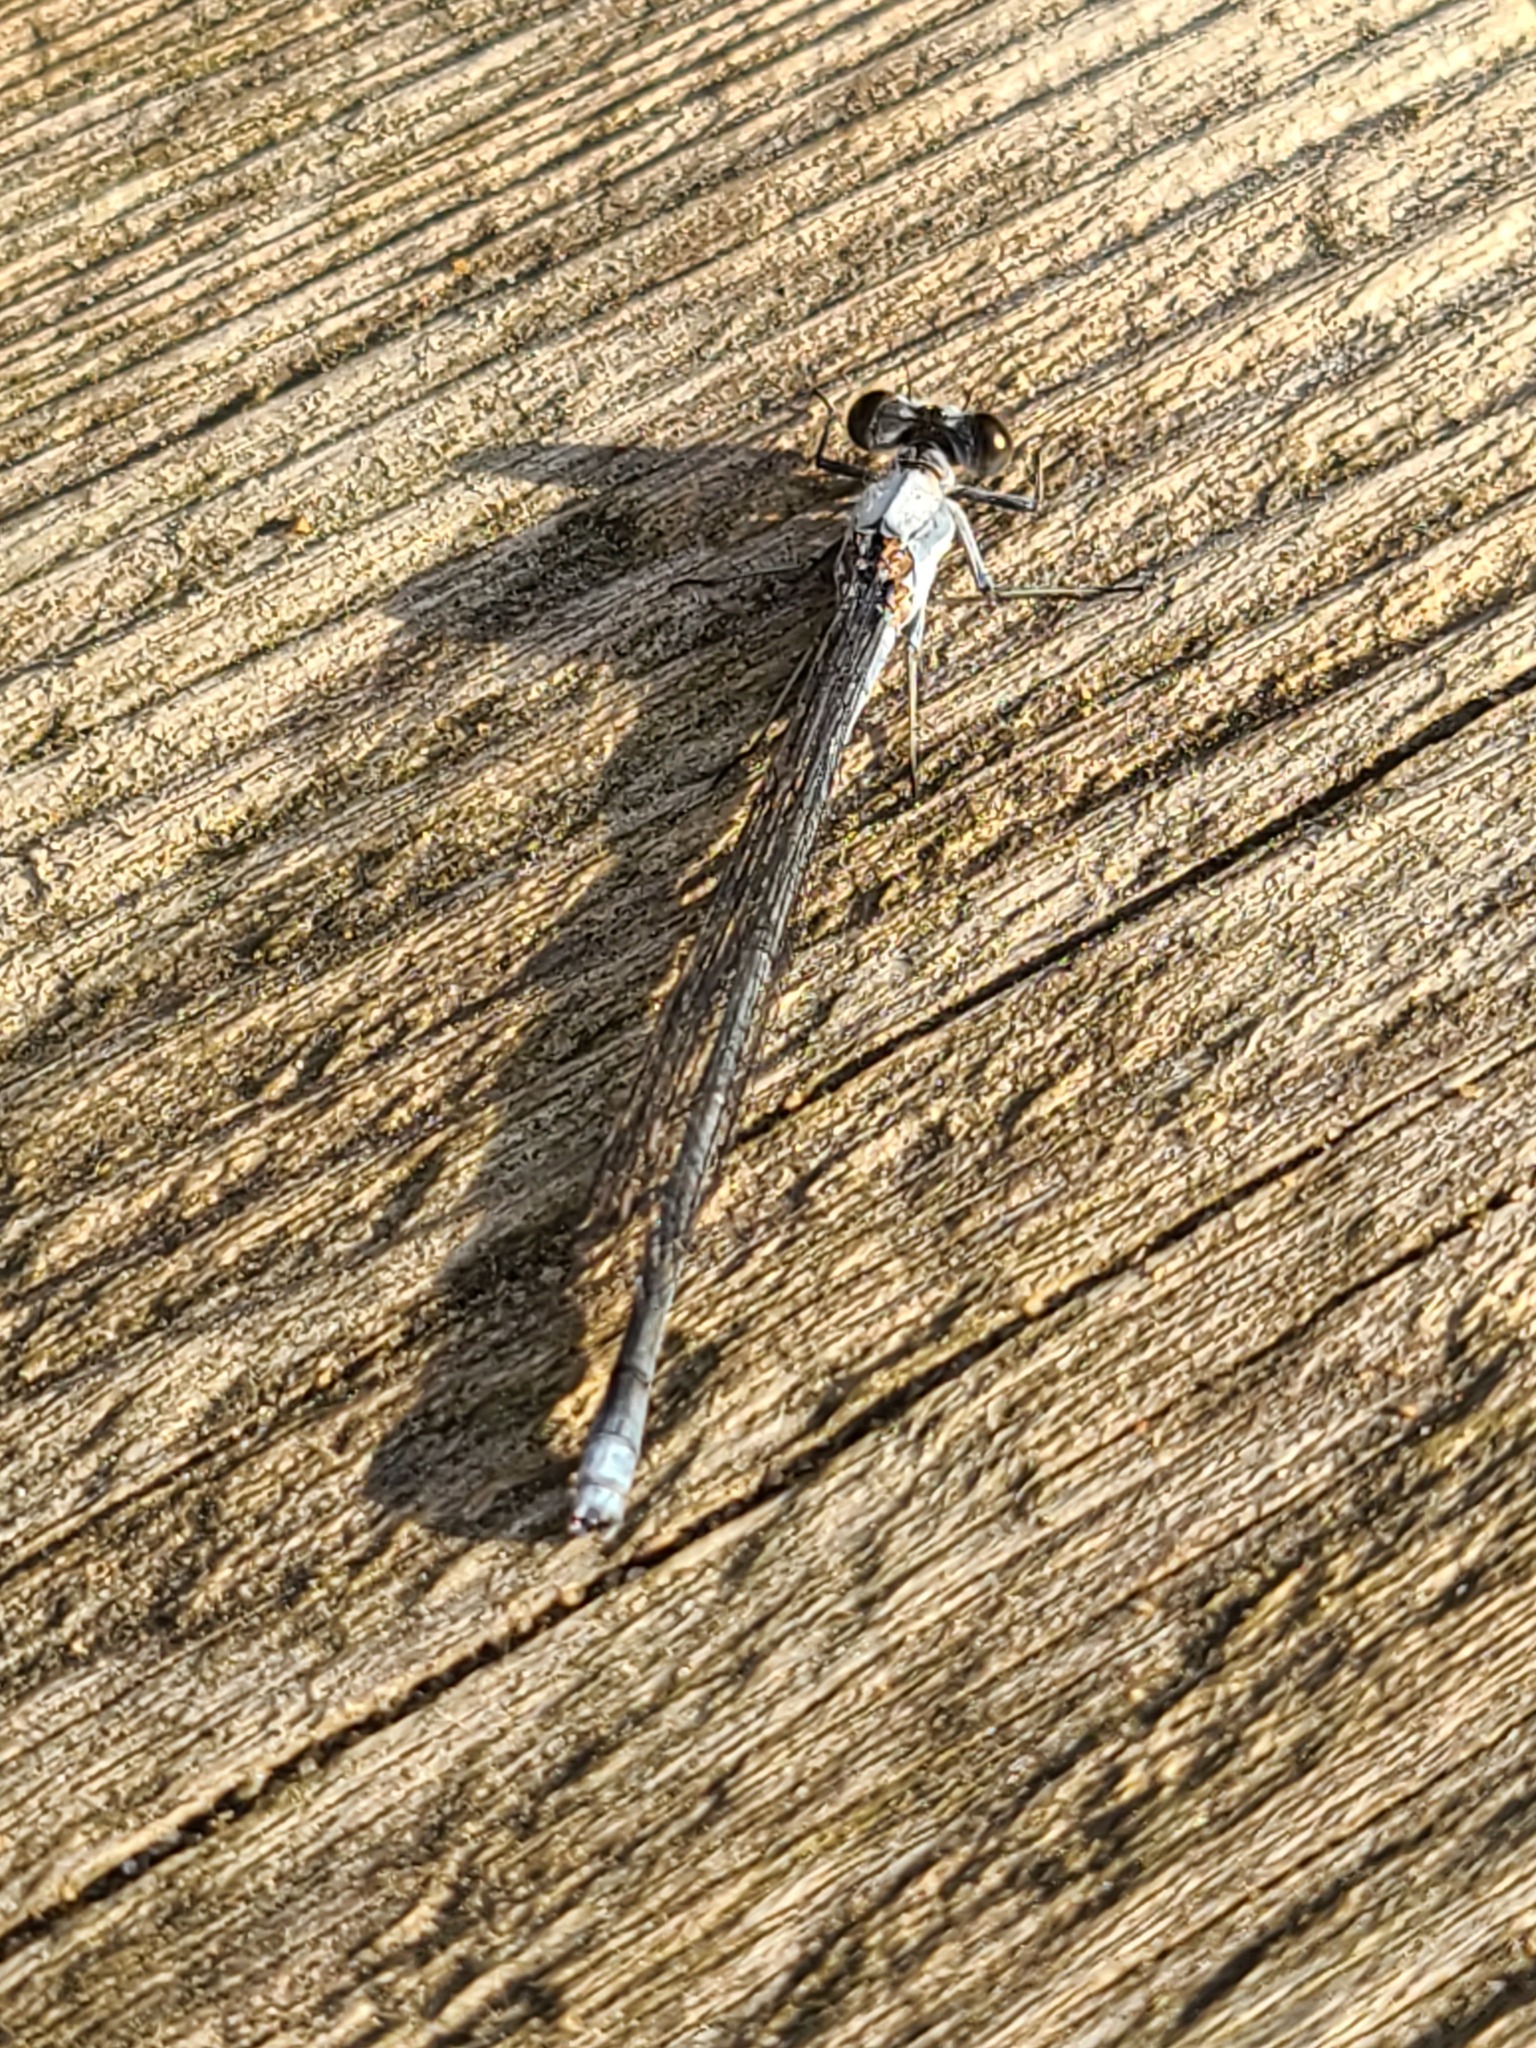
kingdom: Animalia
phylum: Arthropoda
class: Insecta
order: Odonata
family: Coenagrionidae
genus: Argia
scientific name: Argia moesta
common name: Powdered dancer
